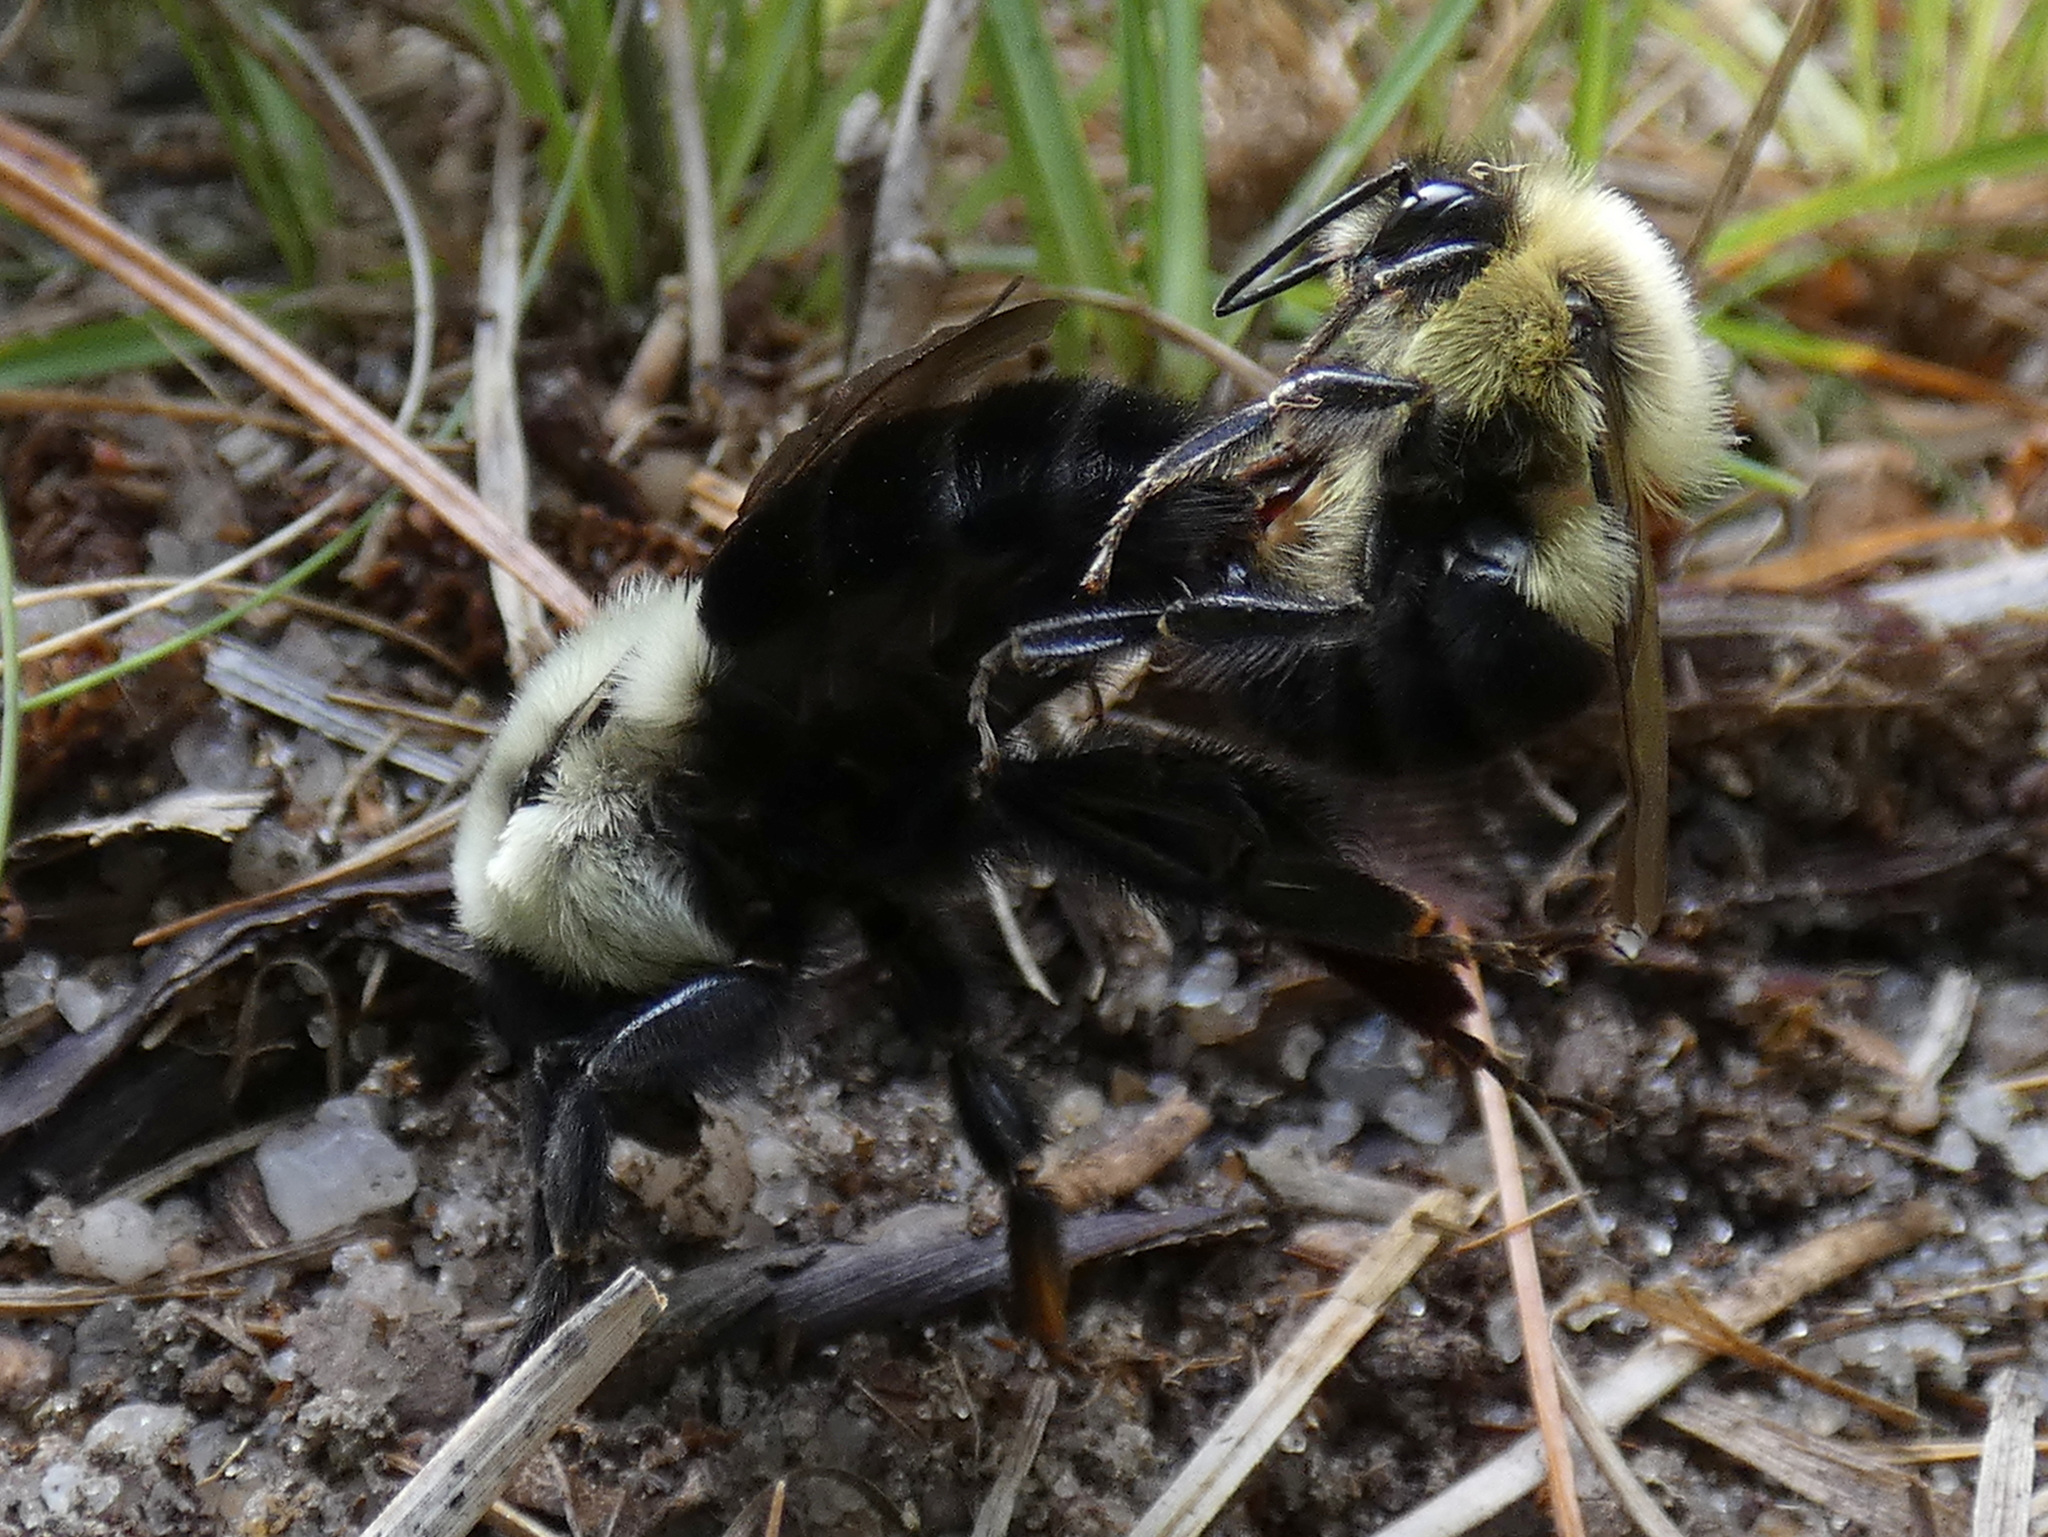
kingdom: Animalia
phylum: Arthropoda
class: Insecta
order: Hymenoptera
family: Apidae
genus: Bombus
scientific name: Bombus impatiens
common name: Common eastern bumble bee
